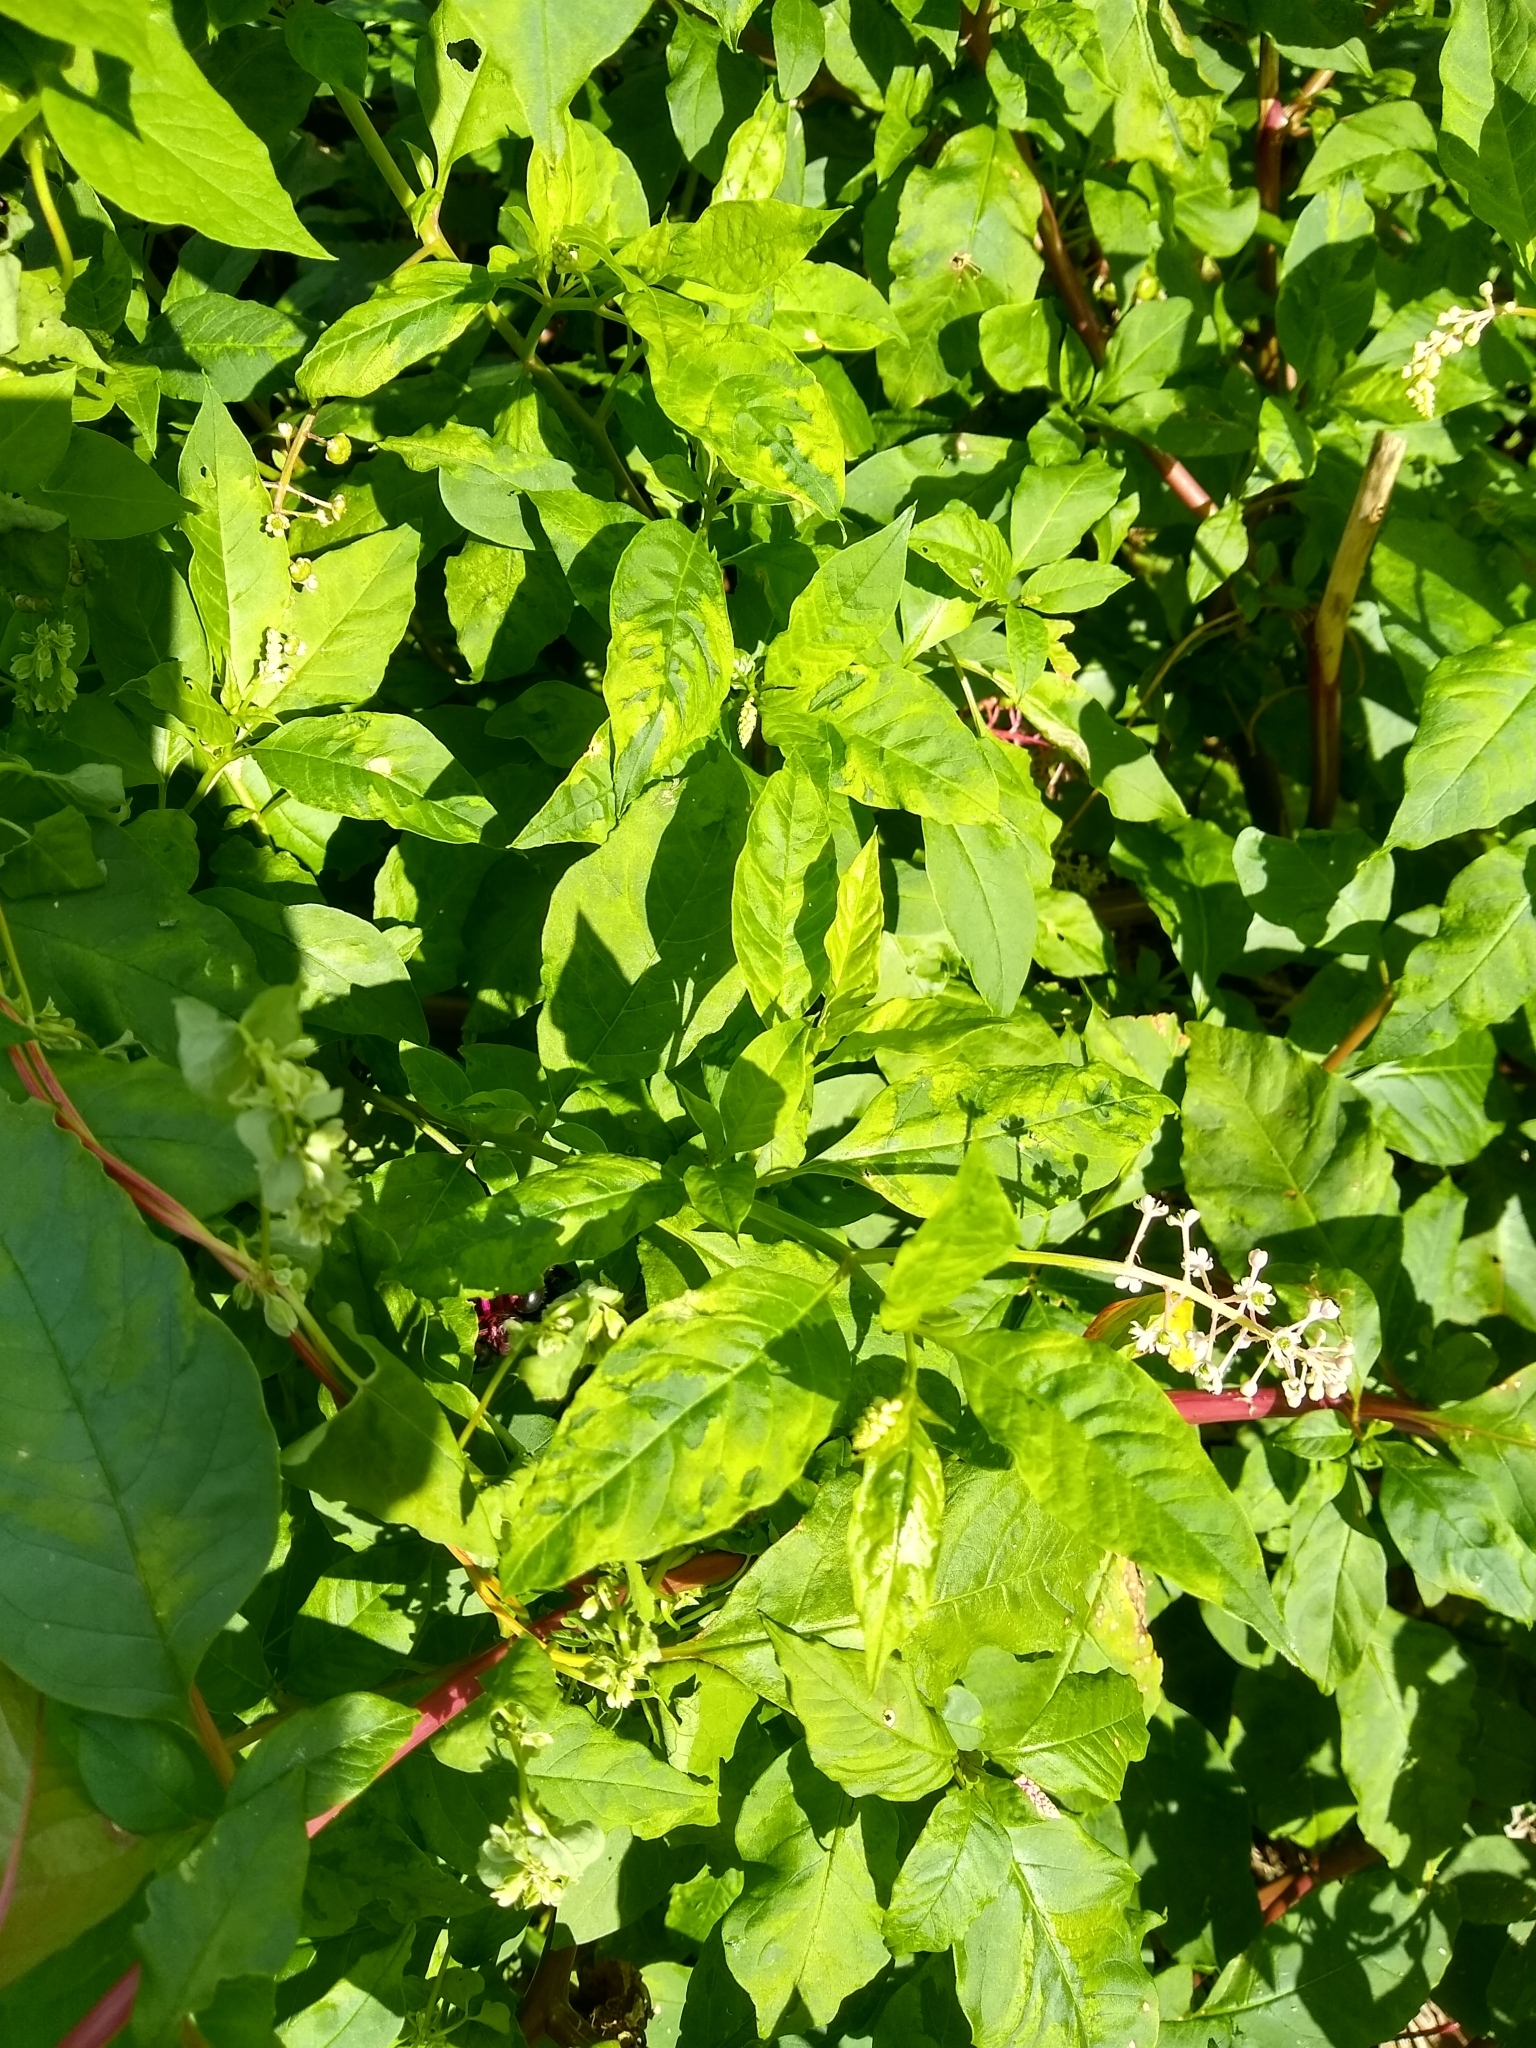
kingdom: Plantae
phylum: Tracheophyta
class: Magnoliopsida
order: Caryophyllales
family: Phytolaccaceae
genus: Phytolacca
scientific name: Phytolacca americana
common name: American pokeweed
